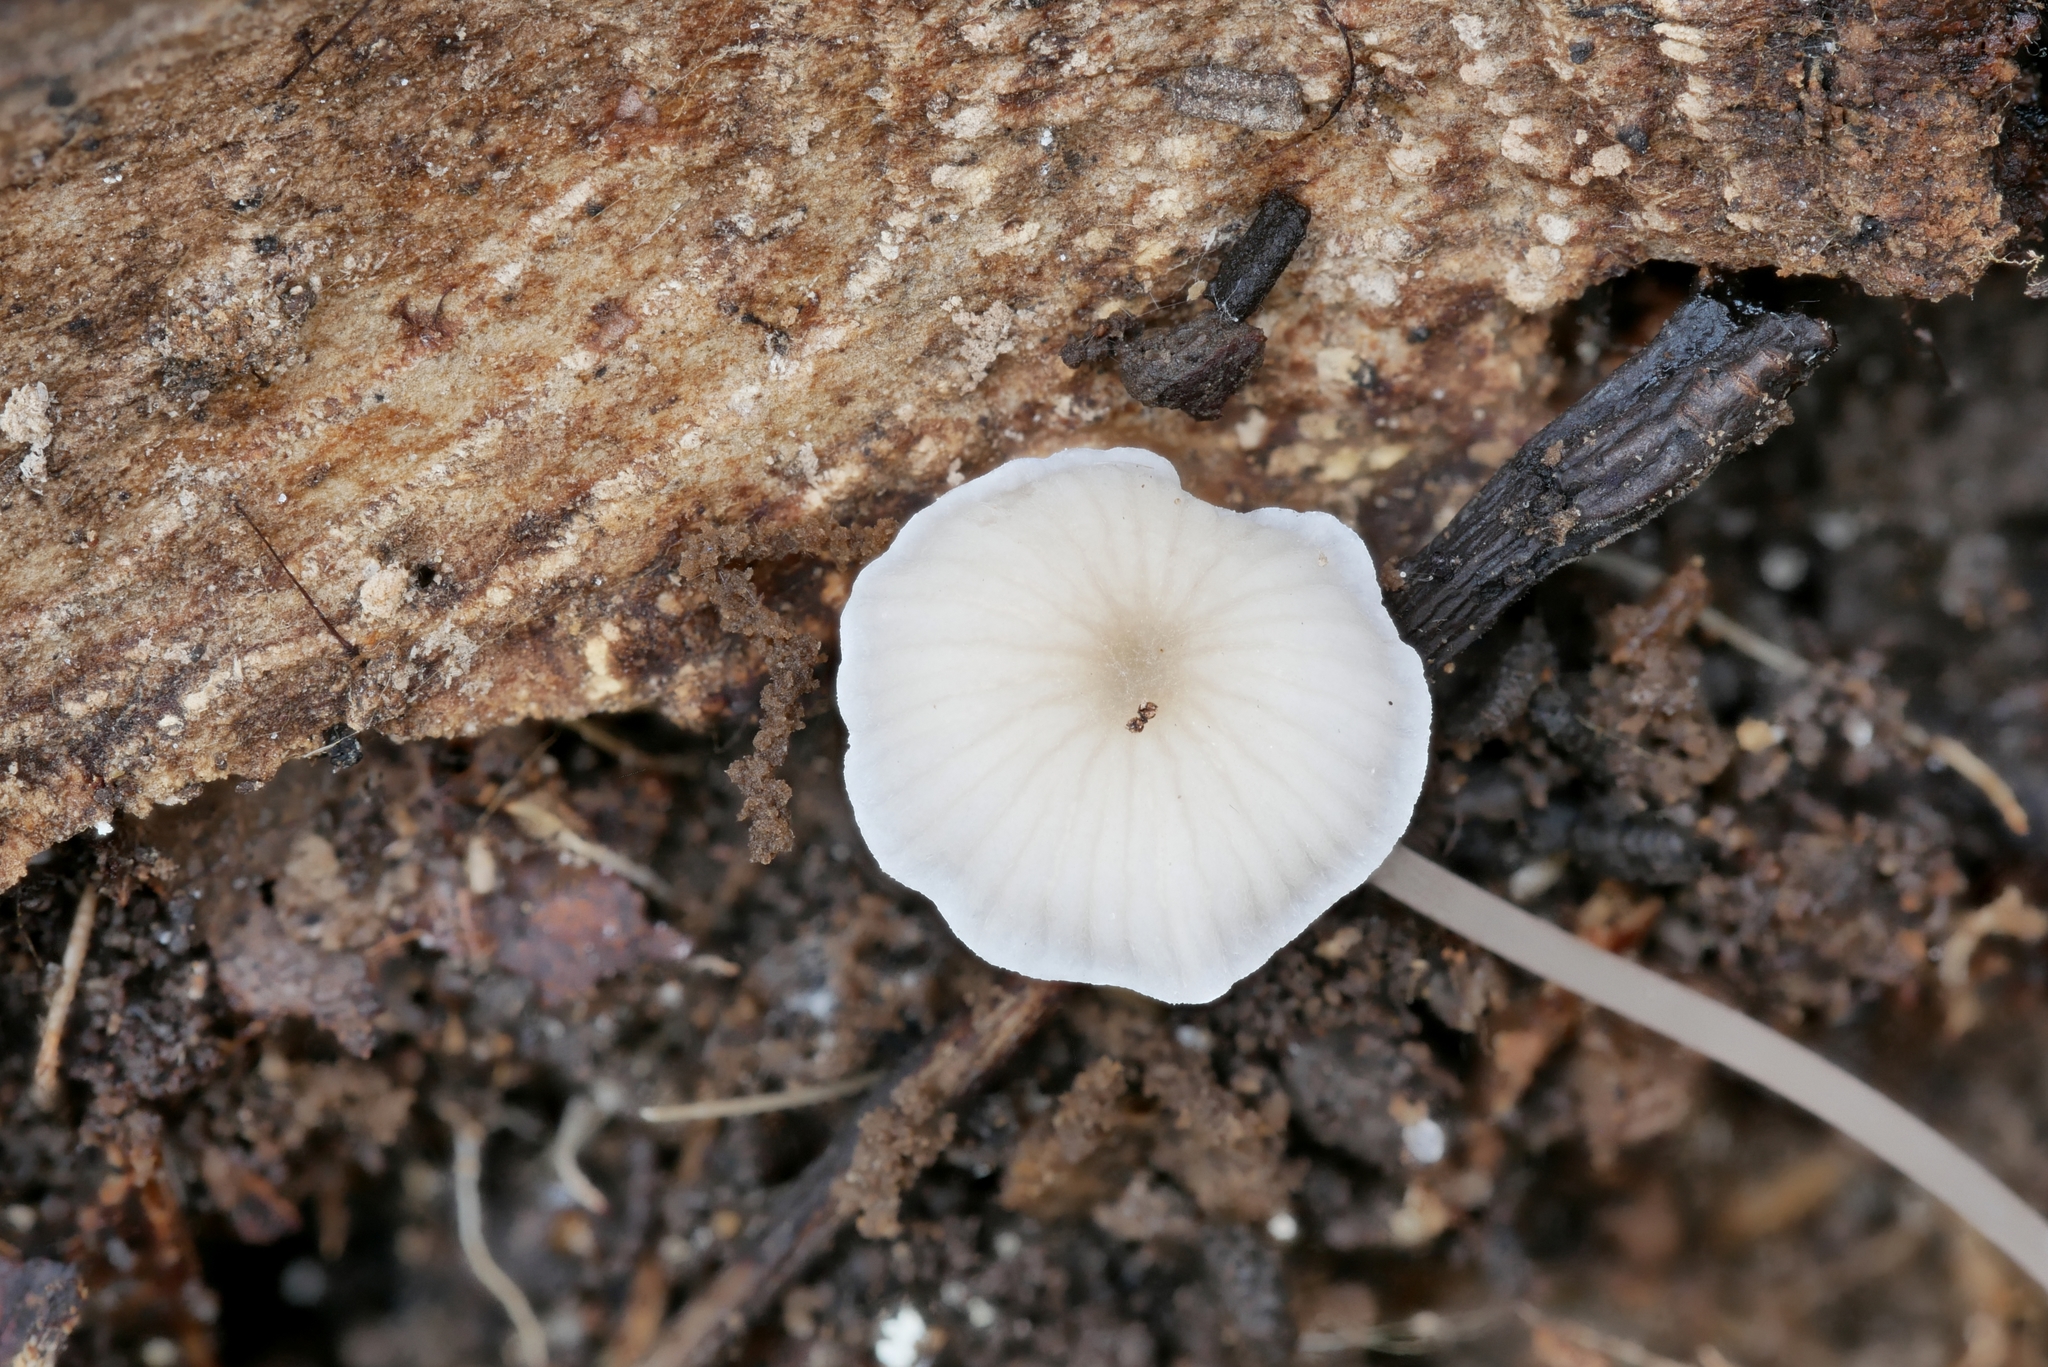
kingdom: Fungi
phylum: Basidiomycota
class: Agaricomycetes
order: Agaricales
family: Mycenaceae
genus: Mycena
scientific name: Mycena mirata
